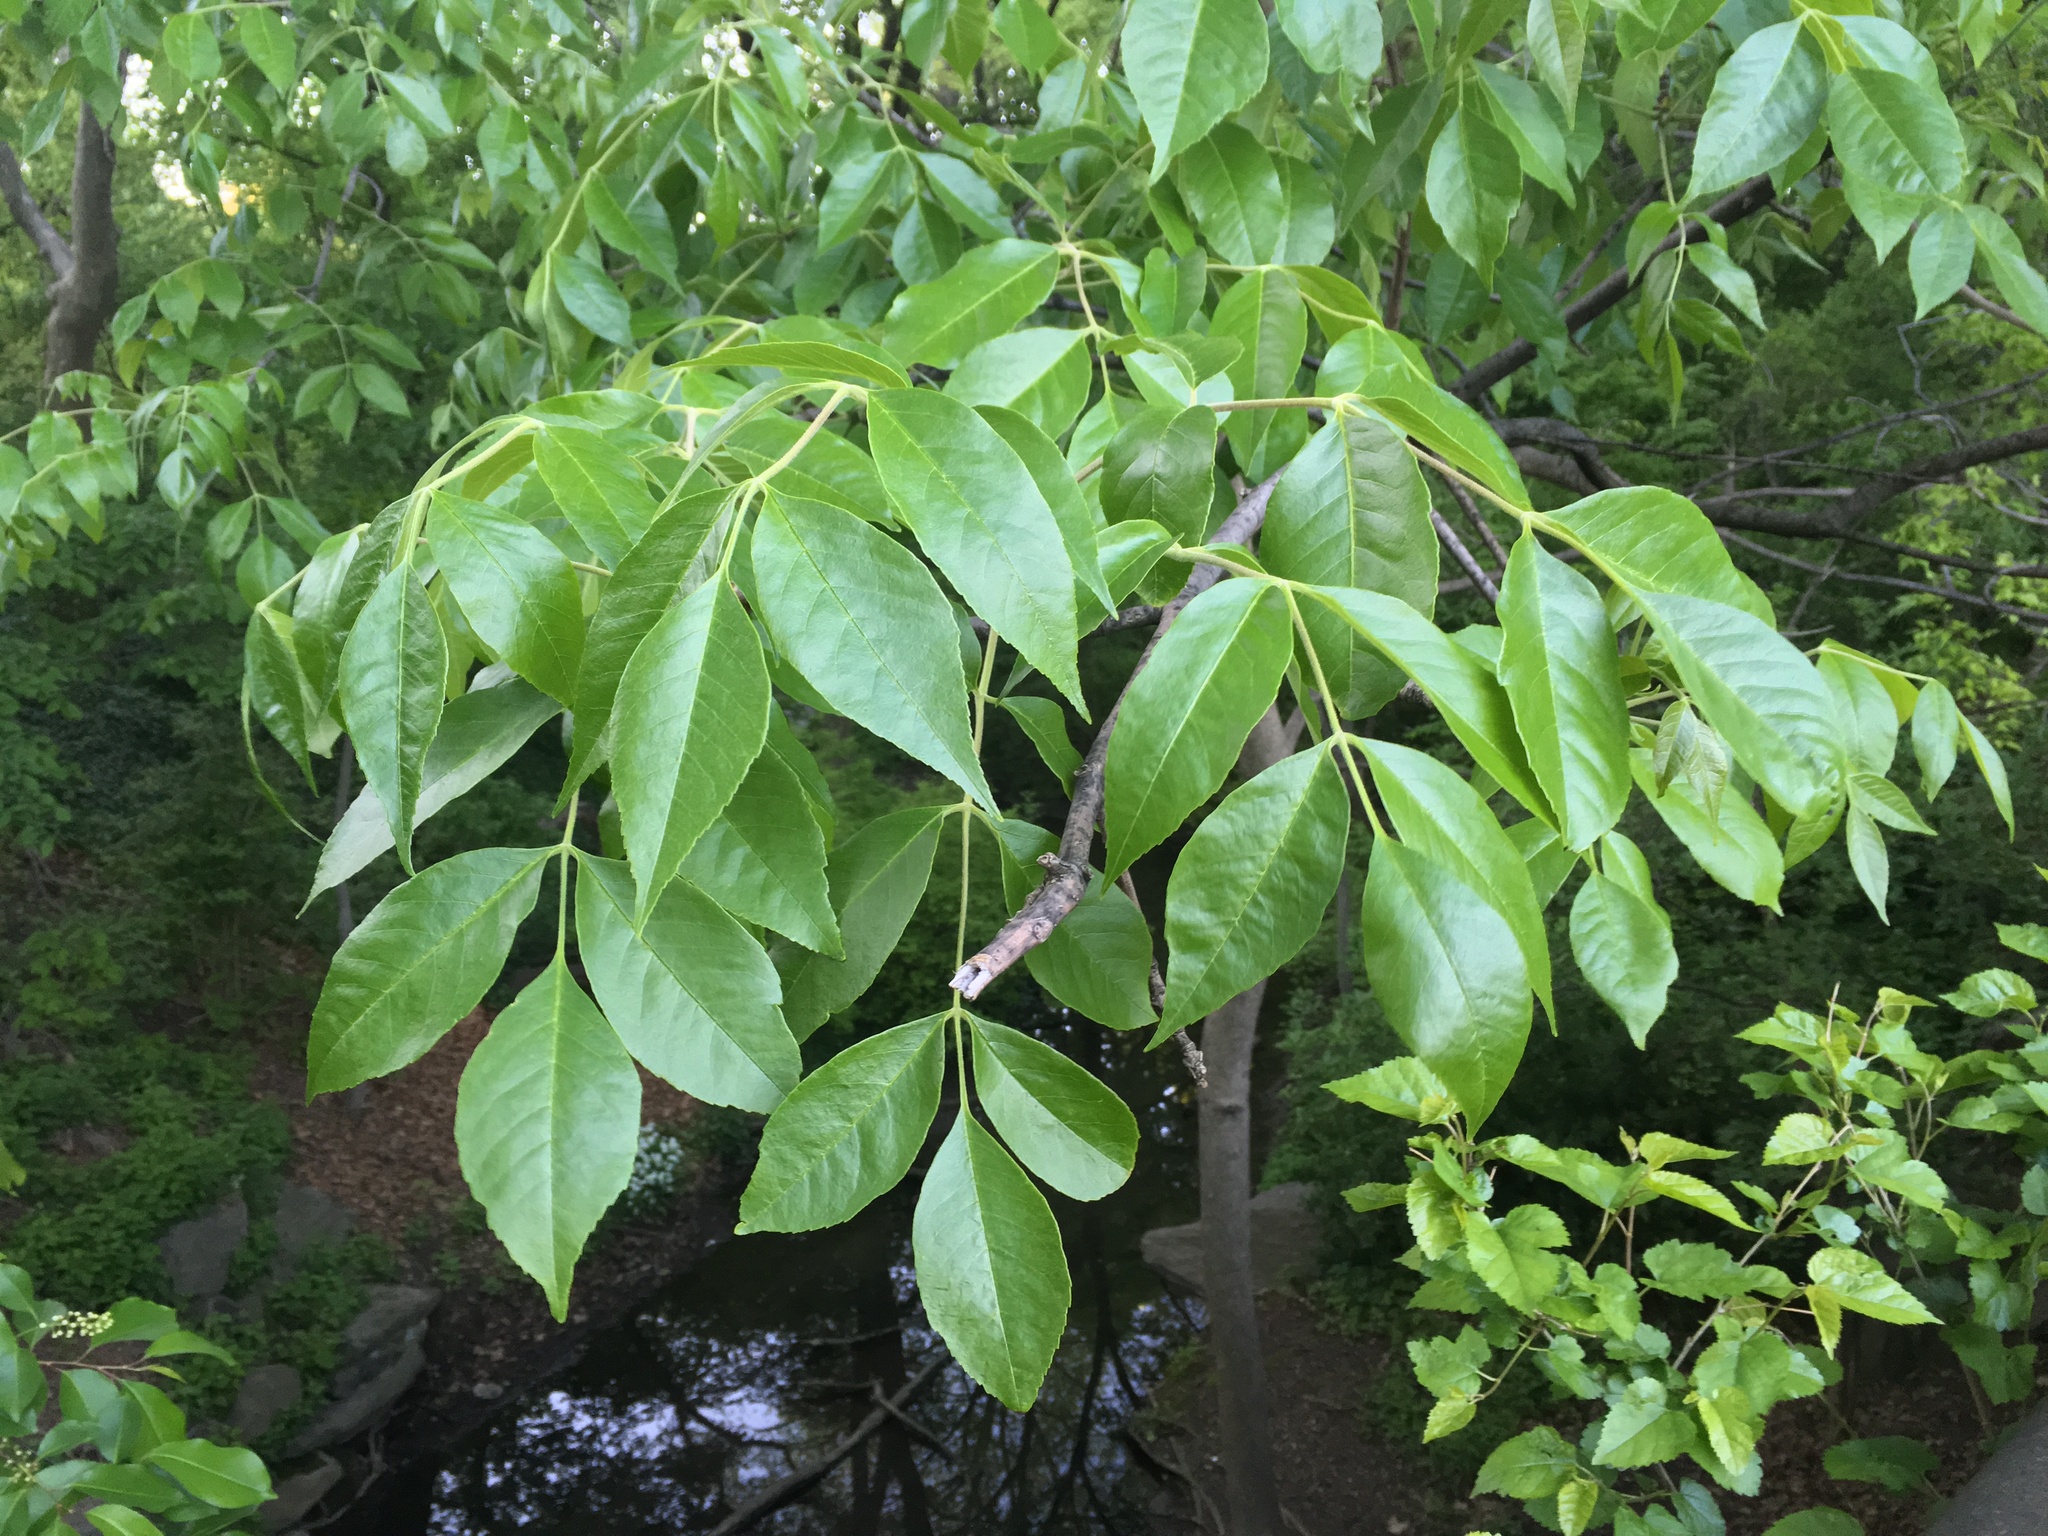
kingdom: Plantae
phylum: Tracheophyta
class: Magnoliopsida
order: Lamiales
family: Oleaceae
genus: Fraxinus
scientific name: Fraxinus profunda
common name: Pumpkin ash
